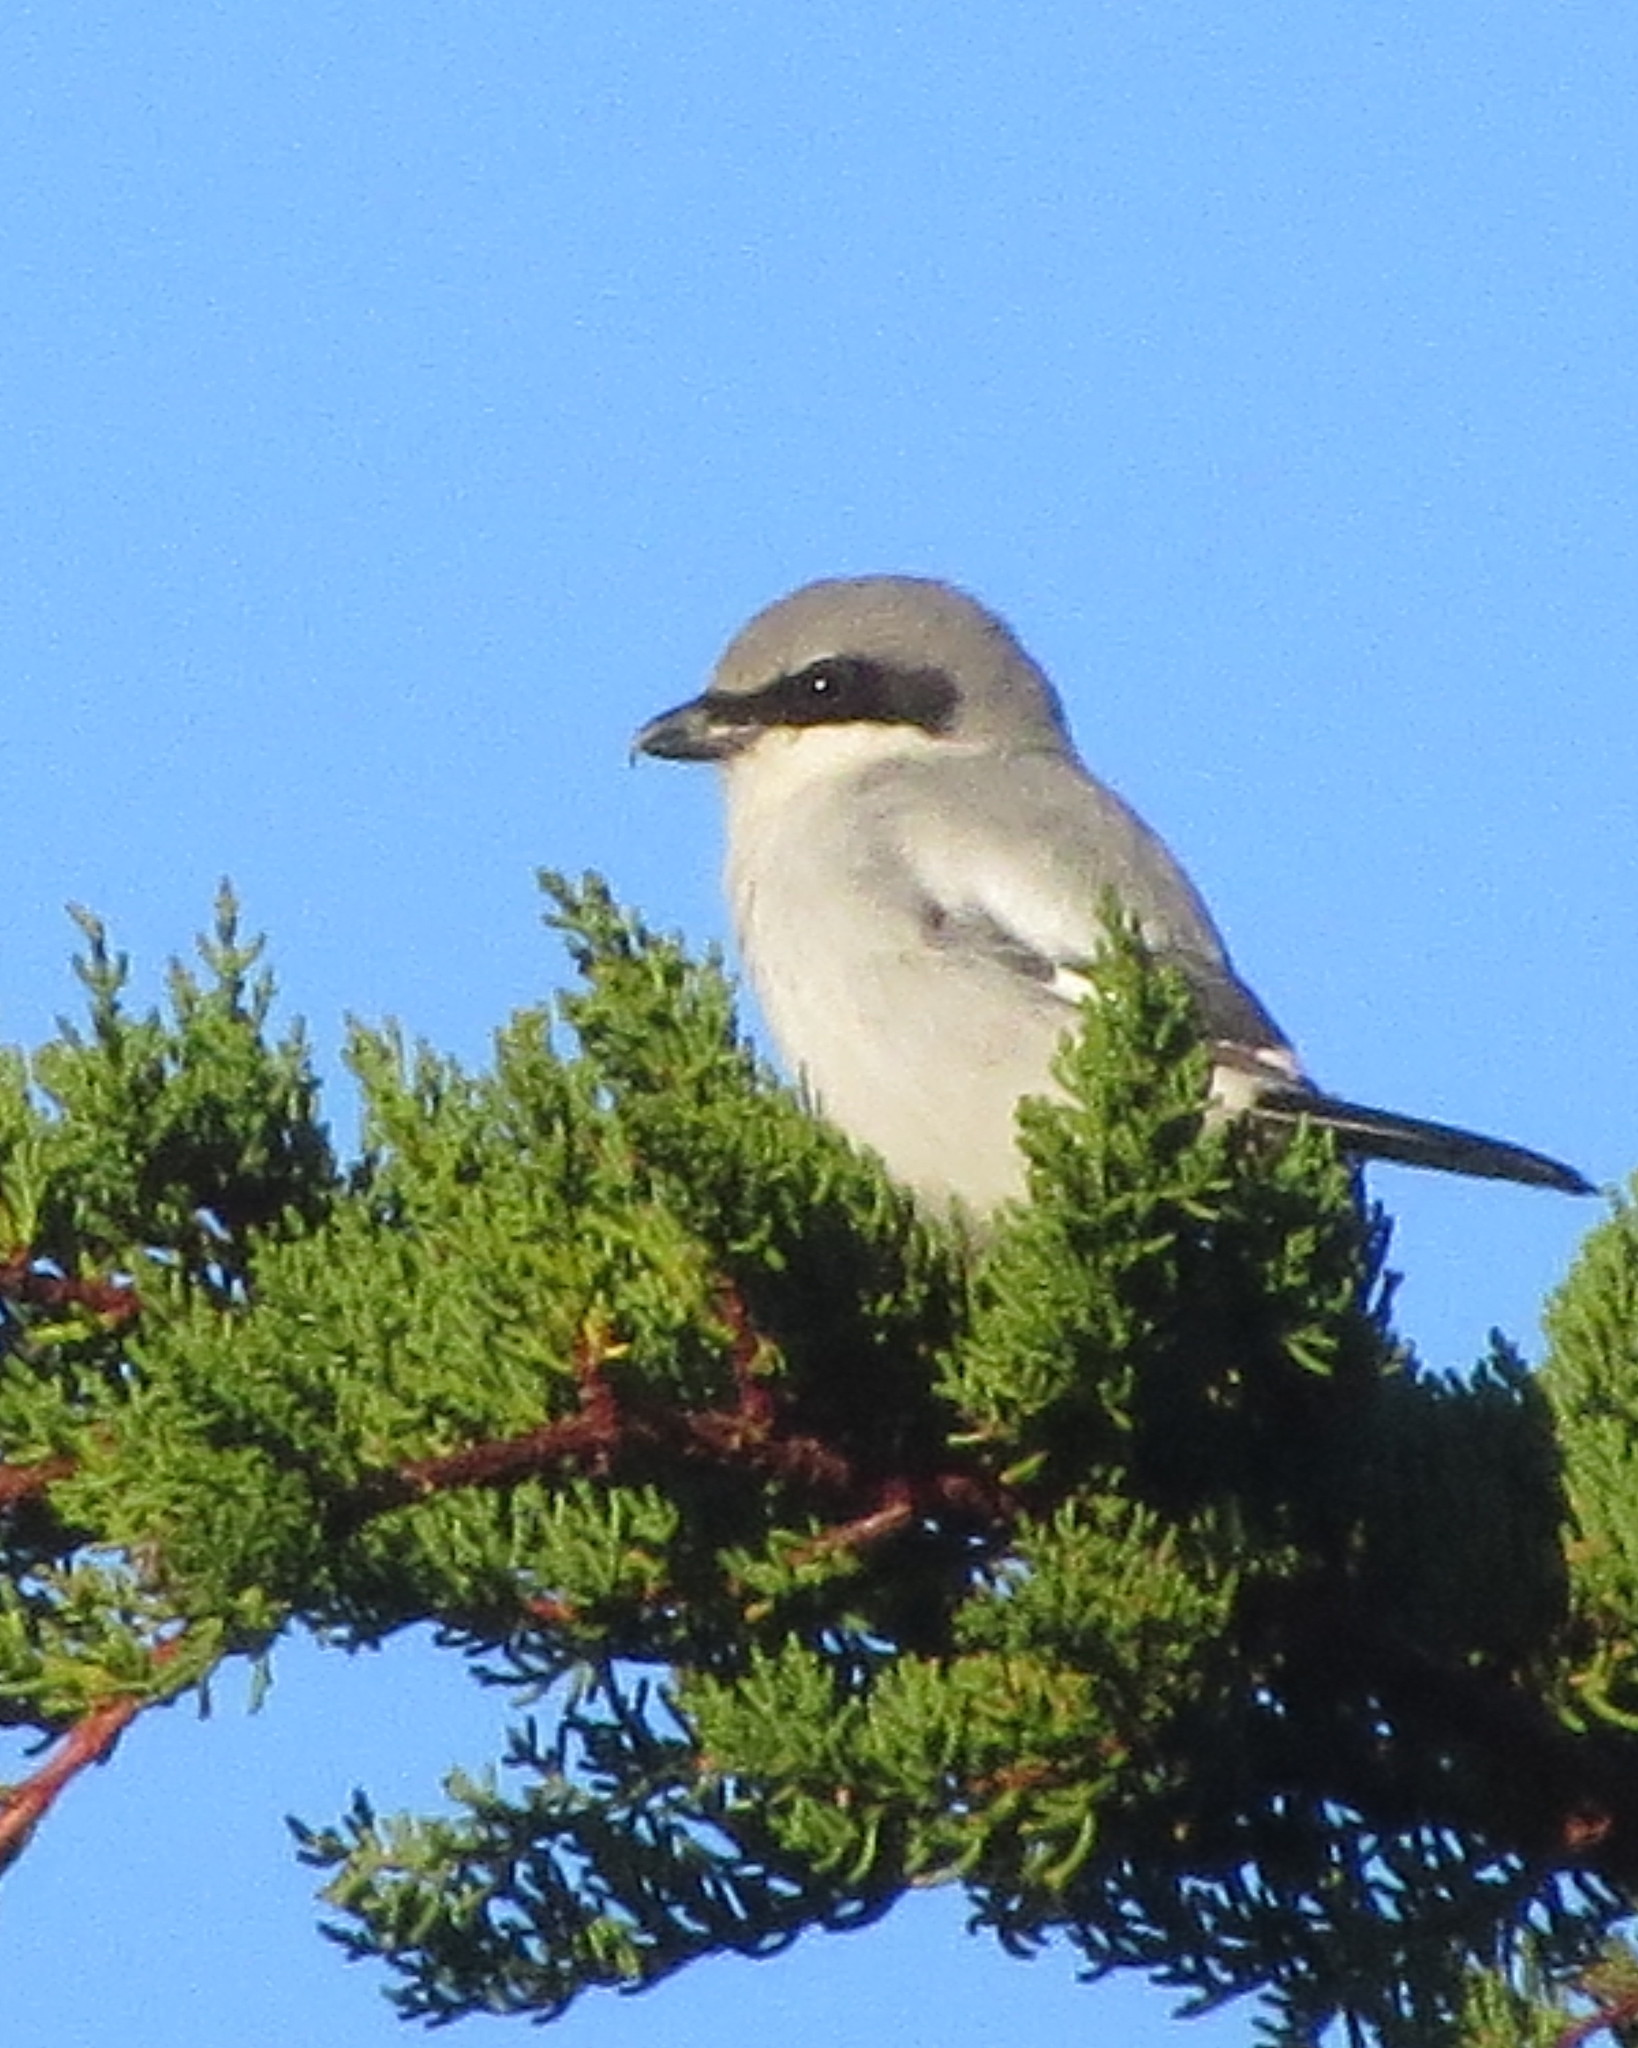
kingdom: Animalia
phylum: Chordata
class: Aves
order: Passeriformes
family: Laniidae
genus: Lanius
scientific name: Lanius ludovicianus
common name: Loggerhead shrike
